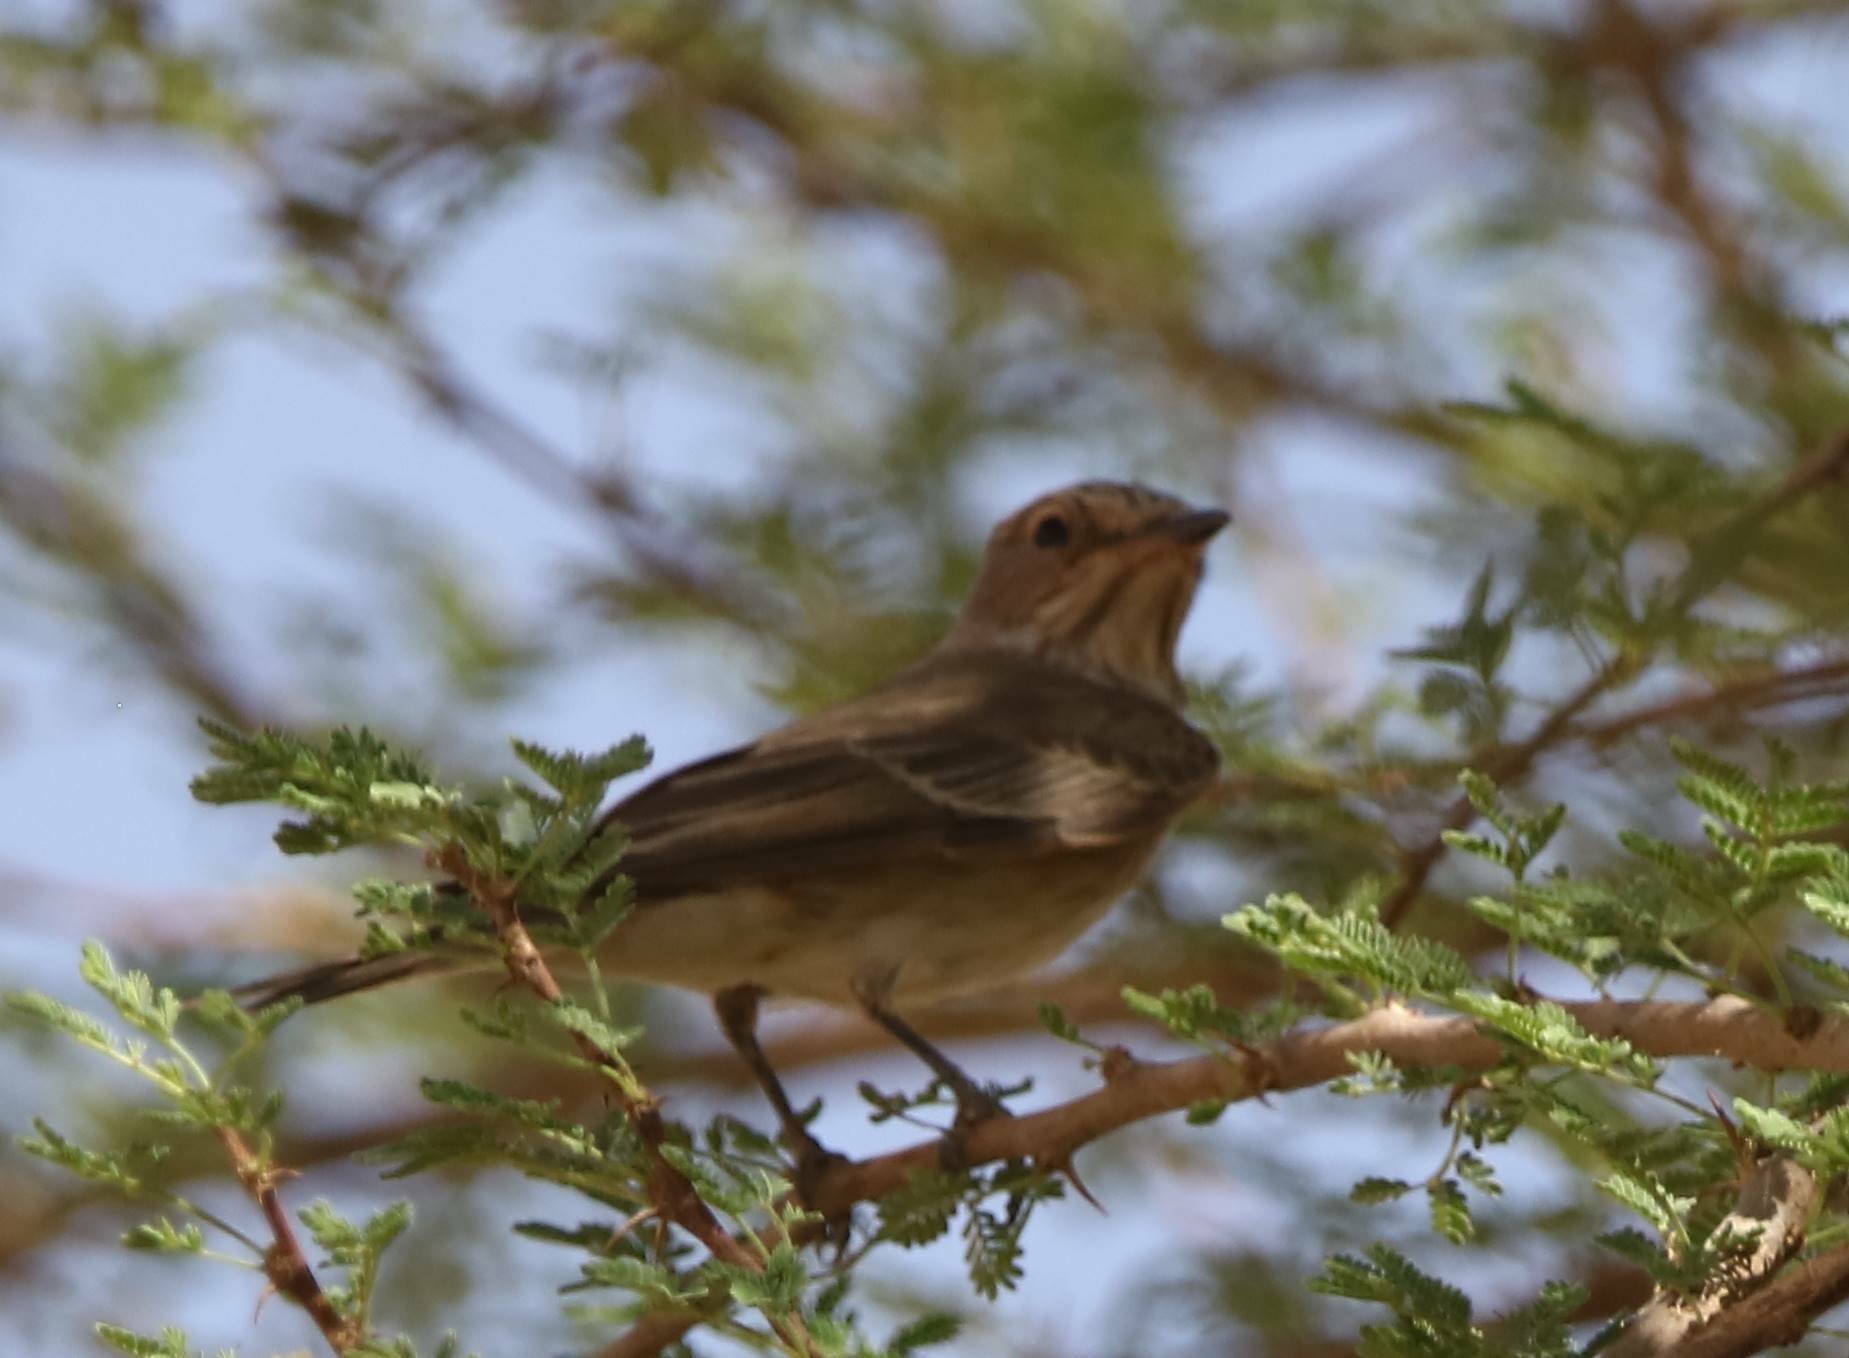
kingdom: Animalia
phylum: Chordata
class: Aves
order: Passeriformes
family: Muscicapidae
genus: Muscicapa
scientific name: Muscicapa striata
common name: Spotted flycatcher
